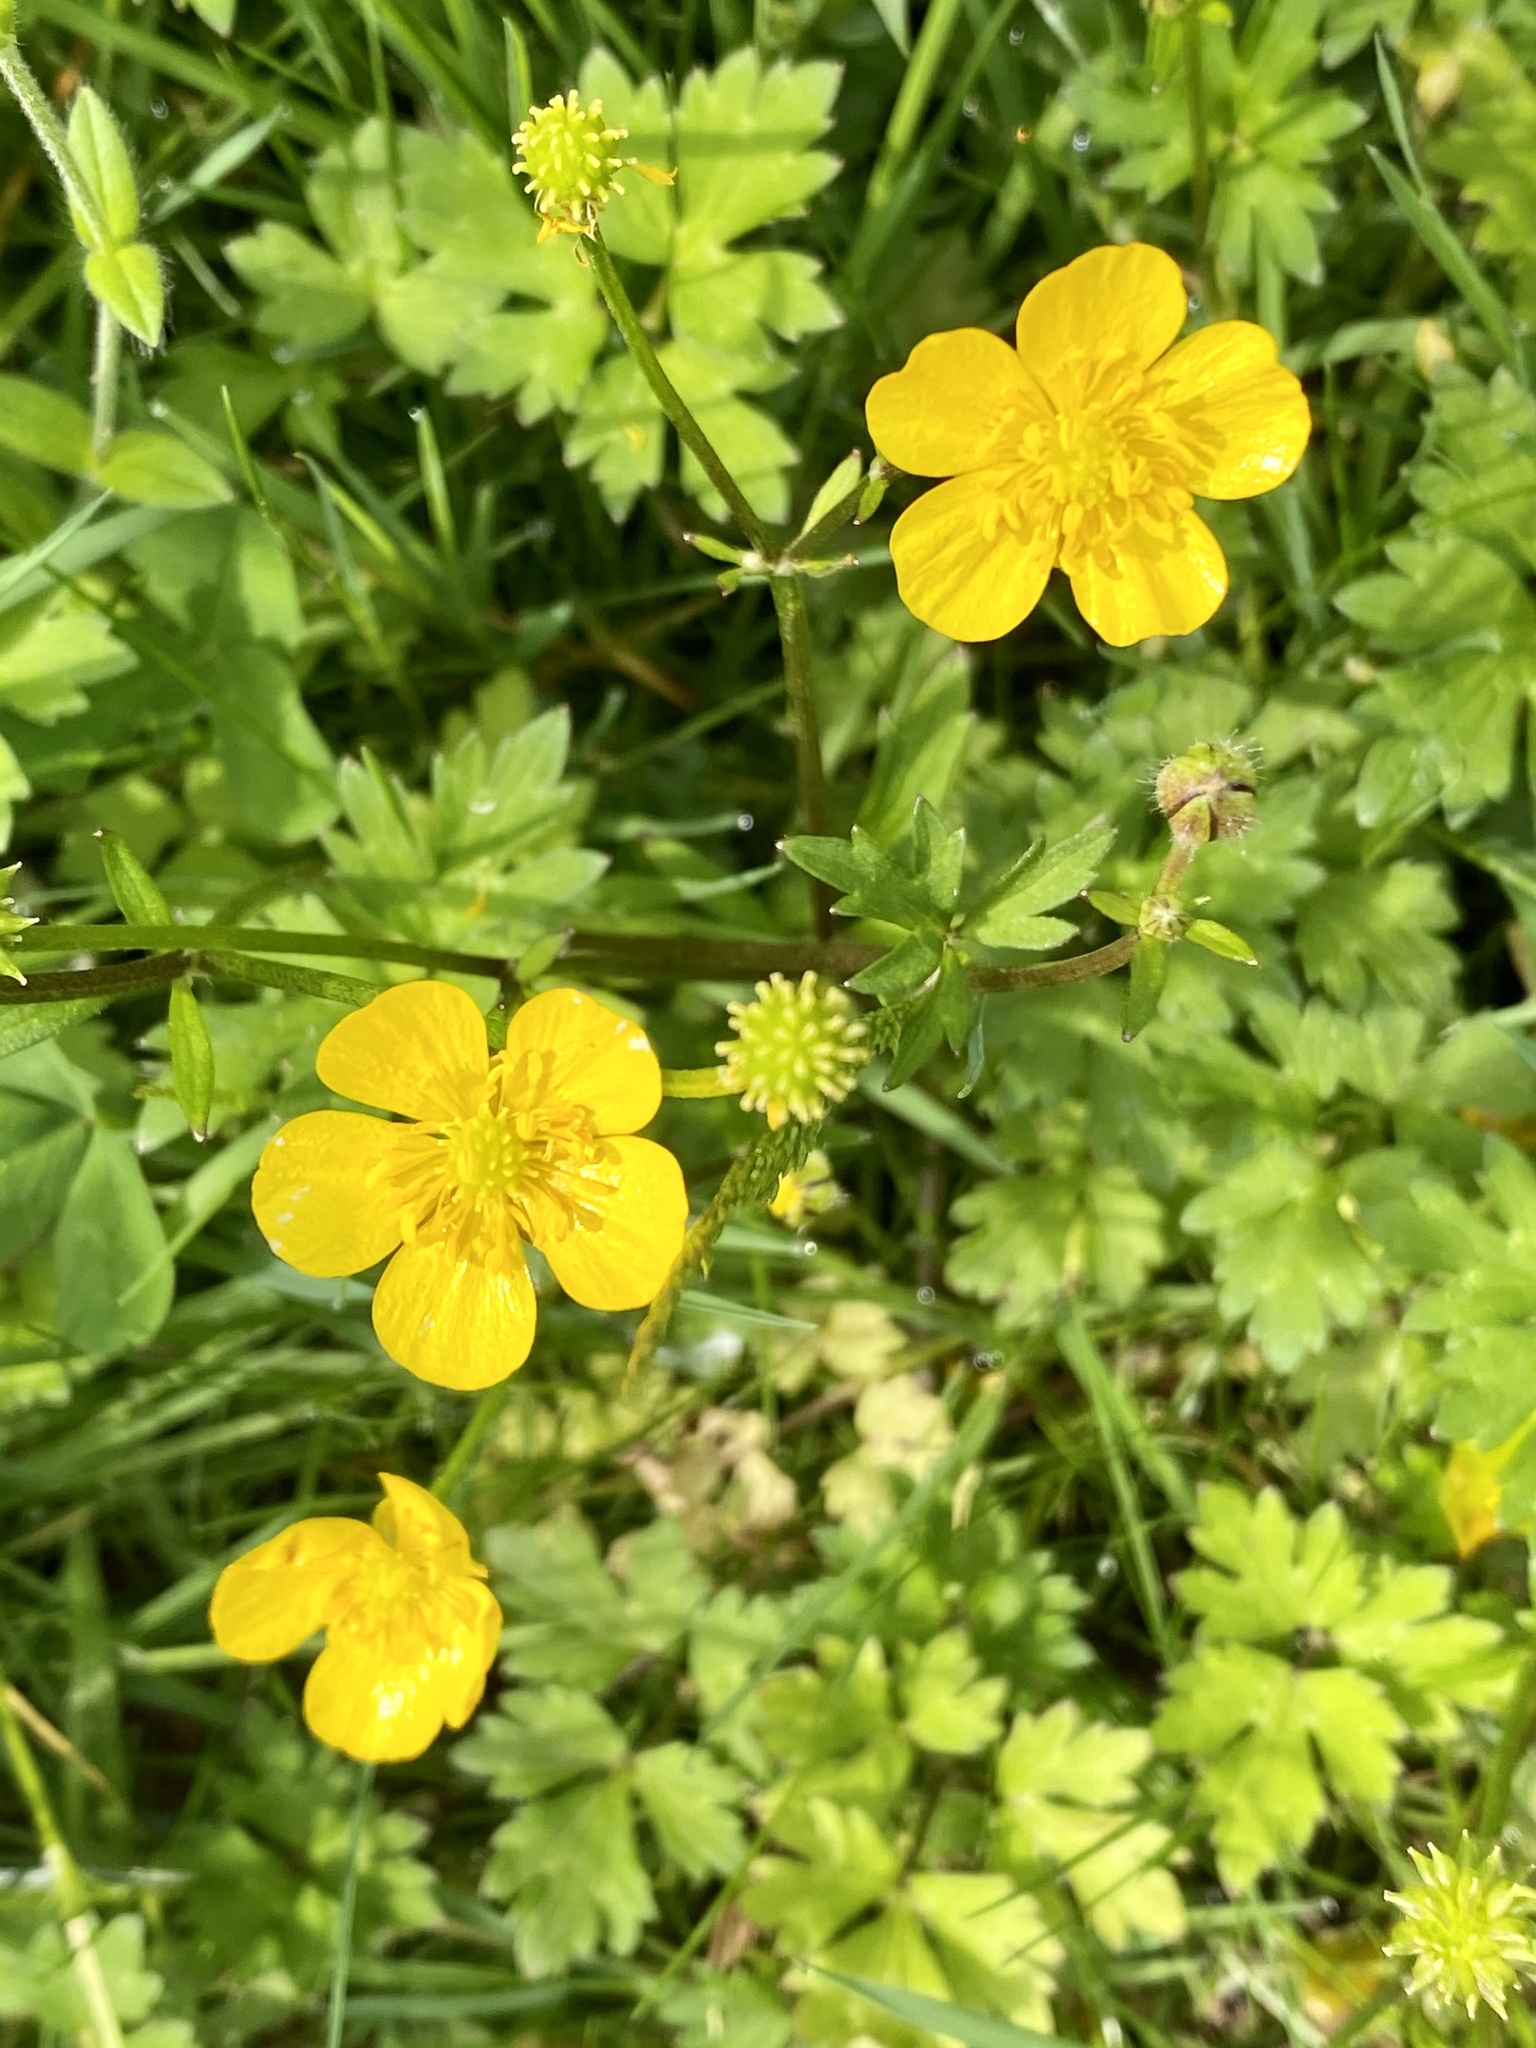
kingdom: Plantae
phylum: Tracheophyta
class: Magnoliopsida
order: Ranunculales
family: Ranunculaceae
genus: Ranunculus
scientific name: Ranunculus repens
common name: Creeping buttercup
